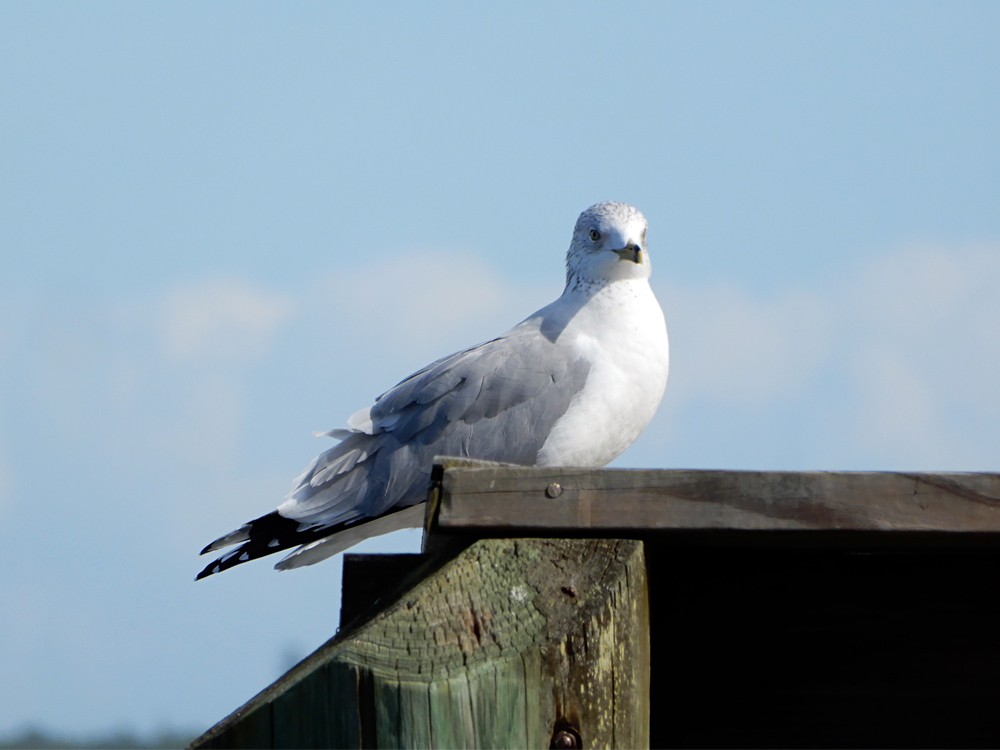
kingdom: Animalia
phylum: Chordata
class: Aves
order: Charadriiformes
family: Laridae
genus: Larus
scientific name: Larus delawarensis
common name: Ring-billed gull
